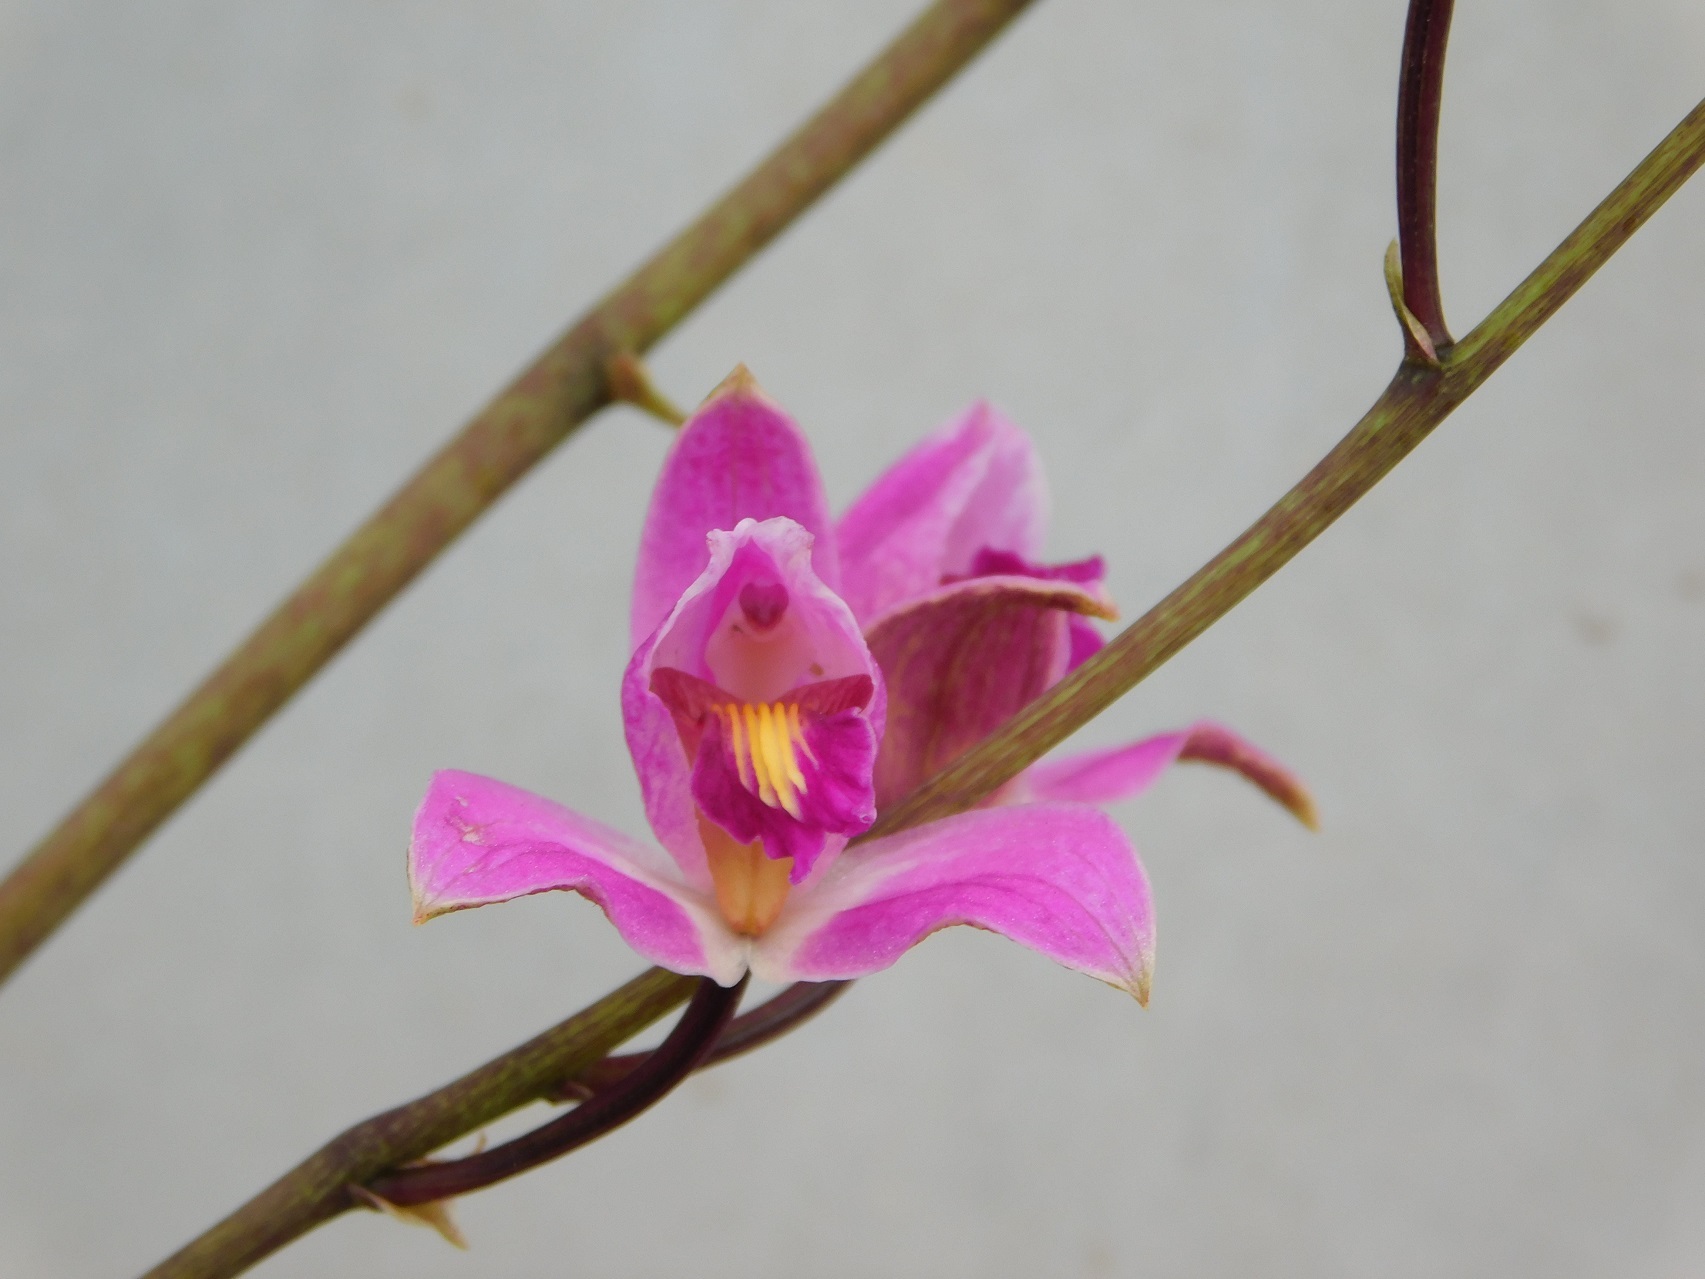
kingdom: Plantae
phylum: Tracheophyta
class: Liliopsida
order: Asparagales
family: Orchidaceae
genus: Bletia
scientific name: Bletia purpurea
